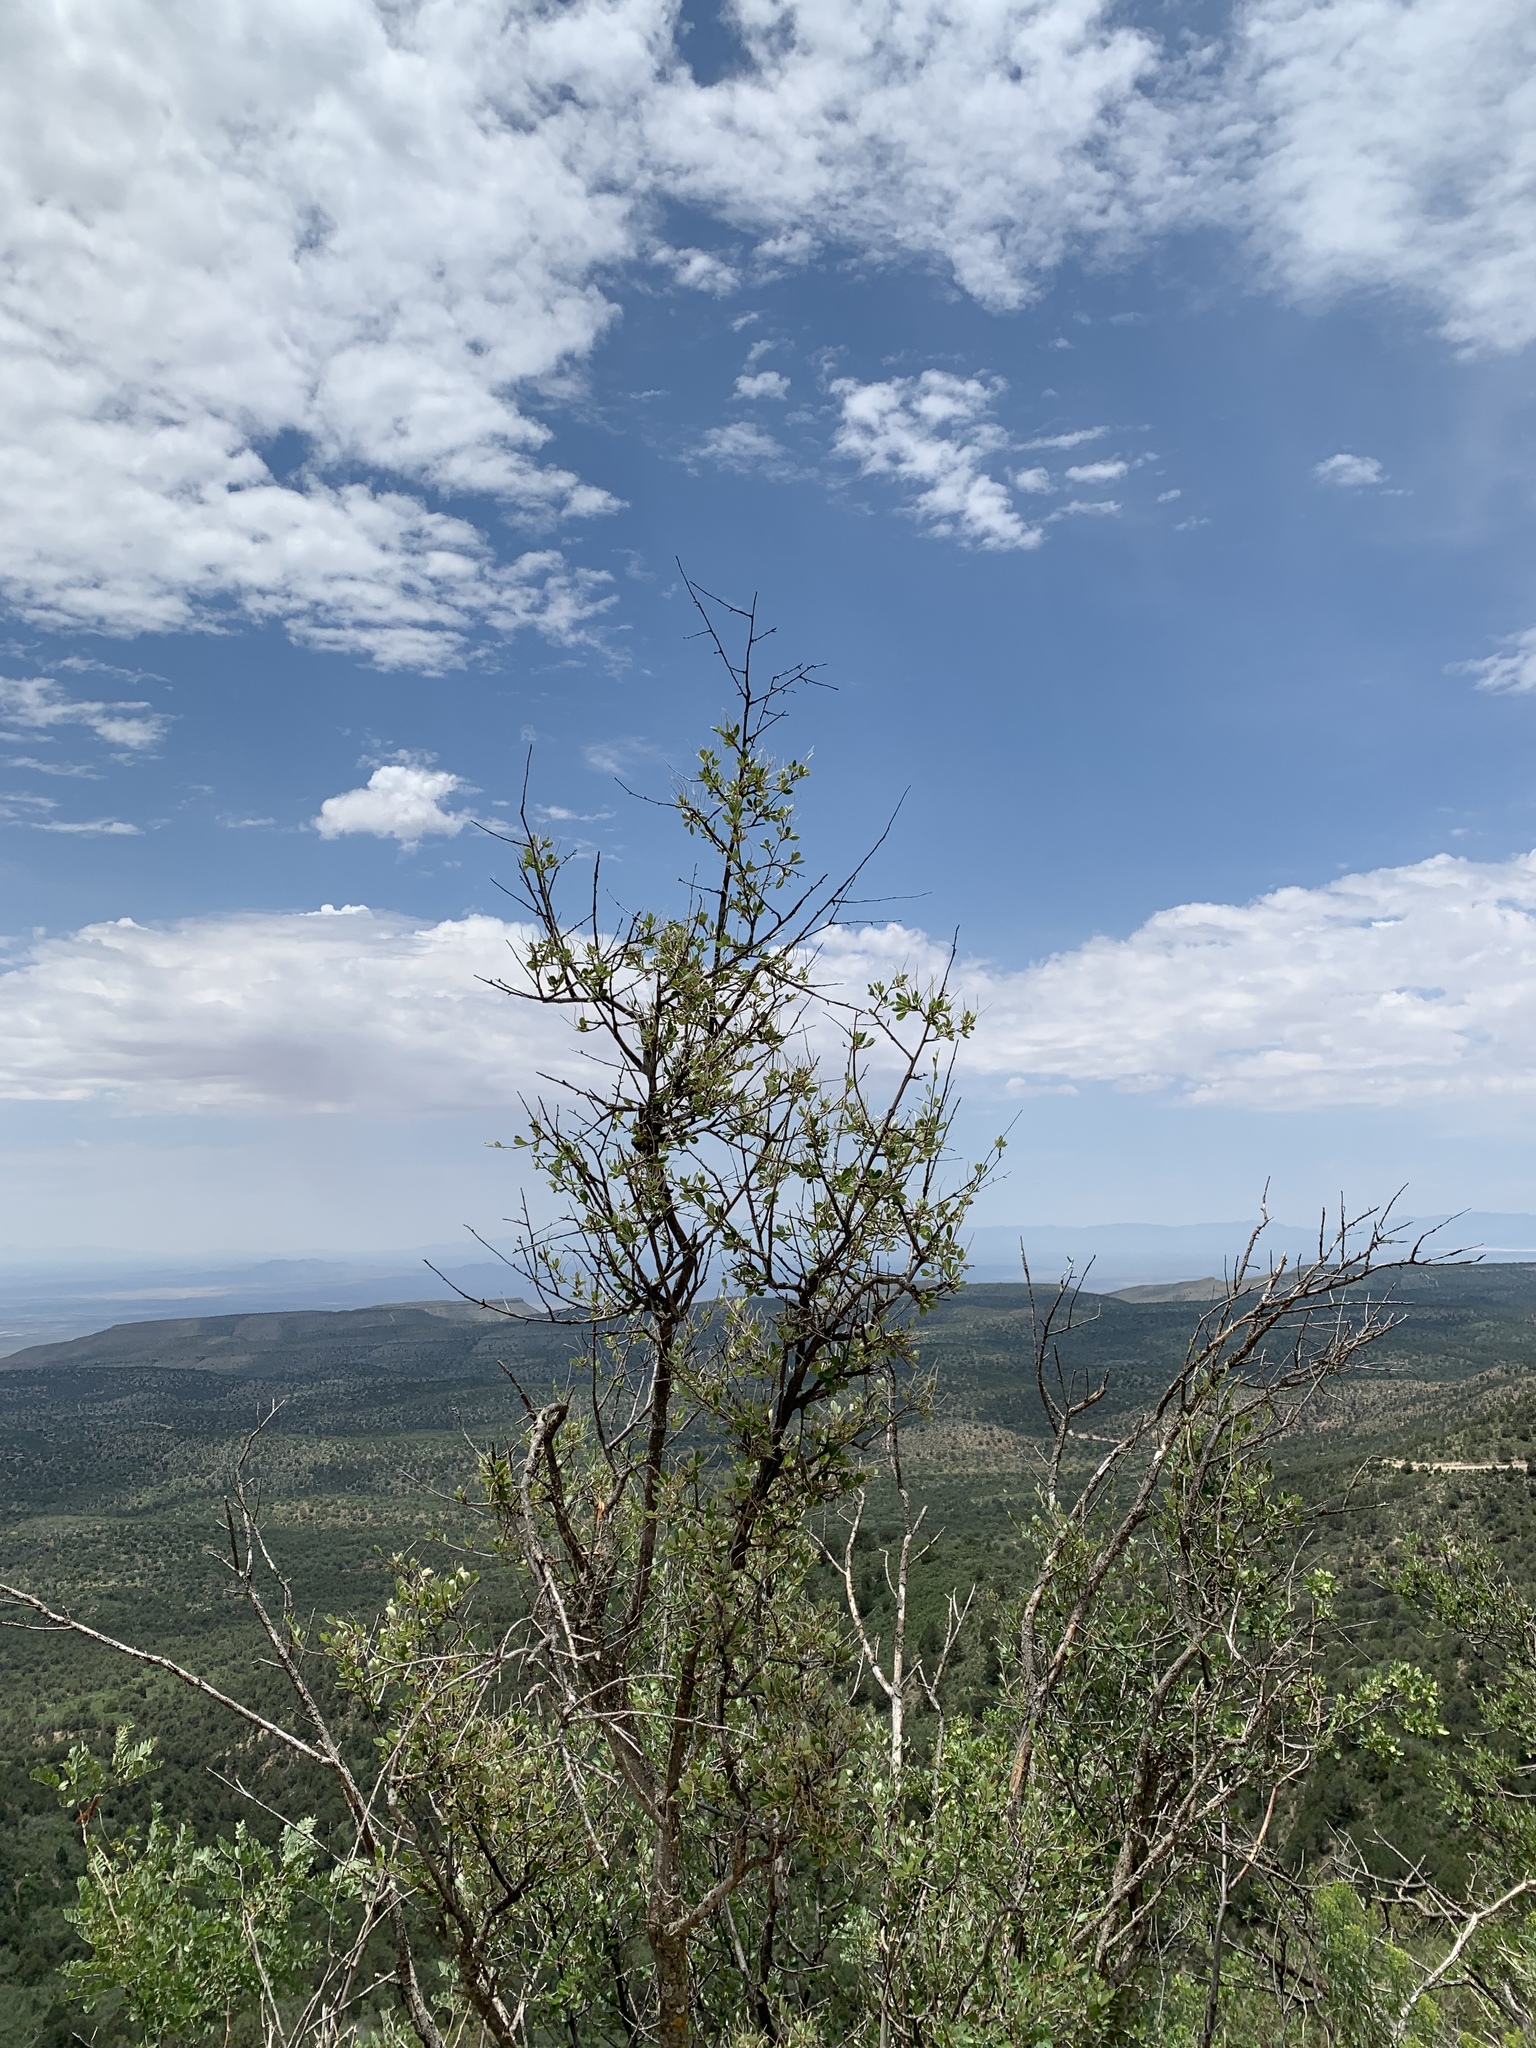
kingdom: Plantae
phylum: Tracheophyta
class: Magnoliopsida
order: Rosales
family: Rosaceae
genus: Cercocarpus
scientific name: Cercocarpus montanus
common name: Alder-leaf cercocarpus
